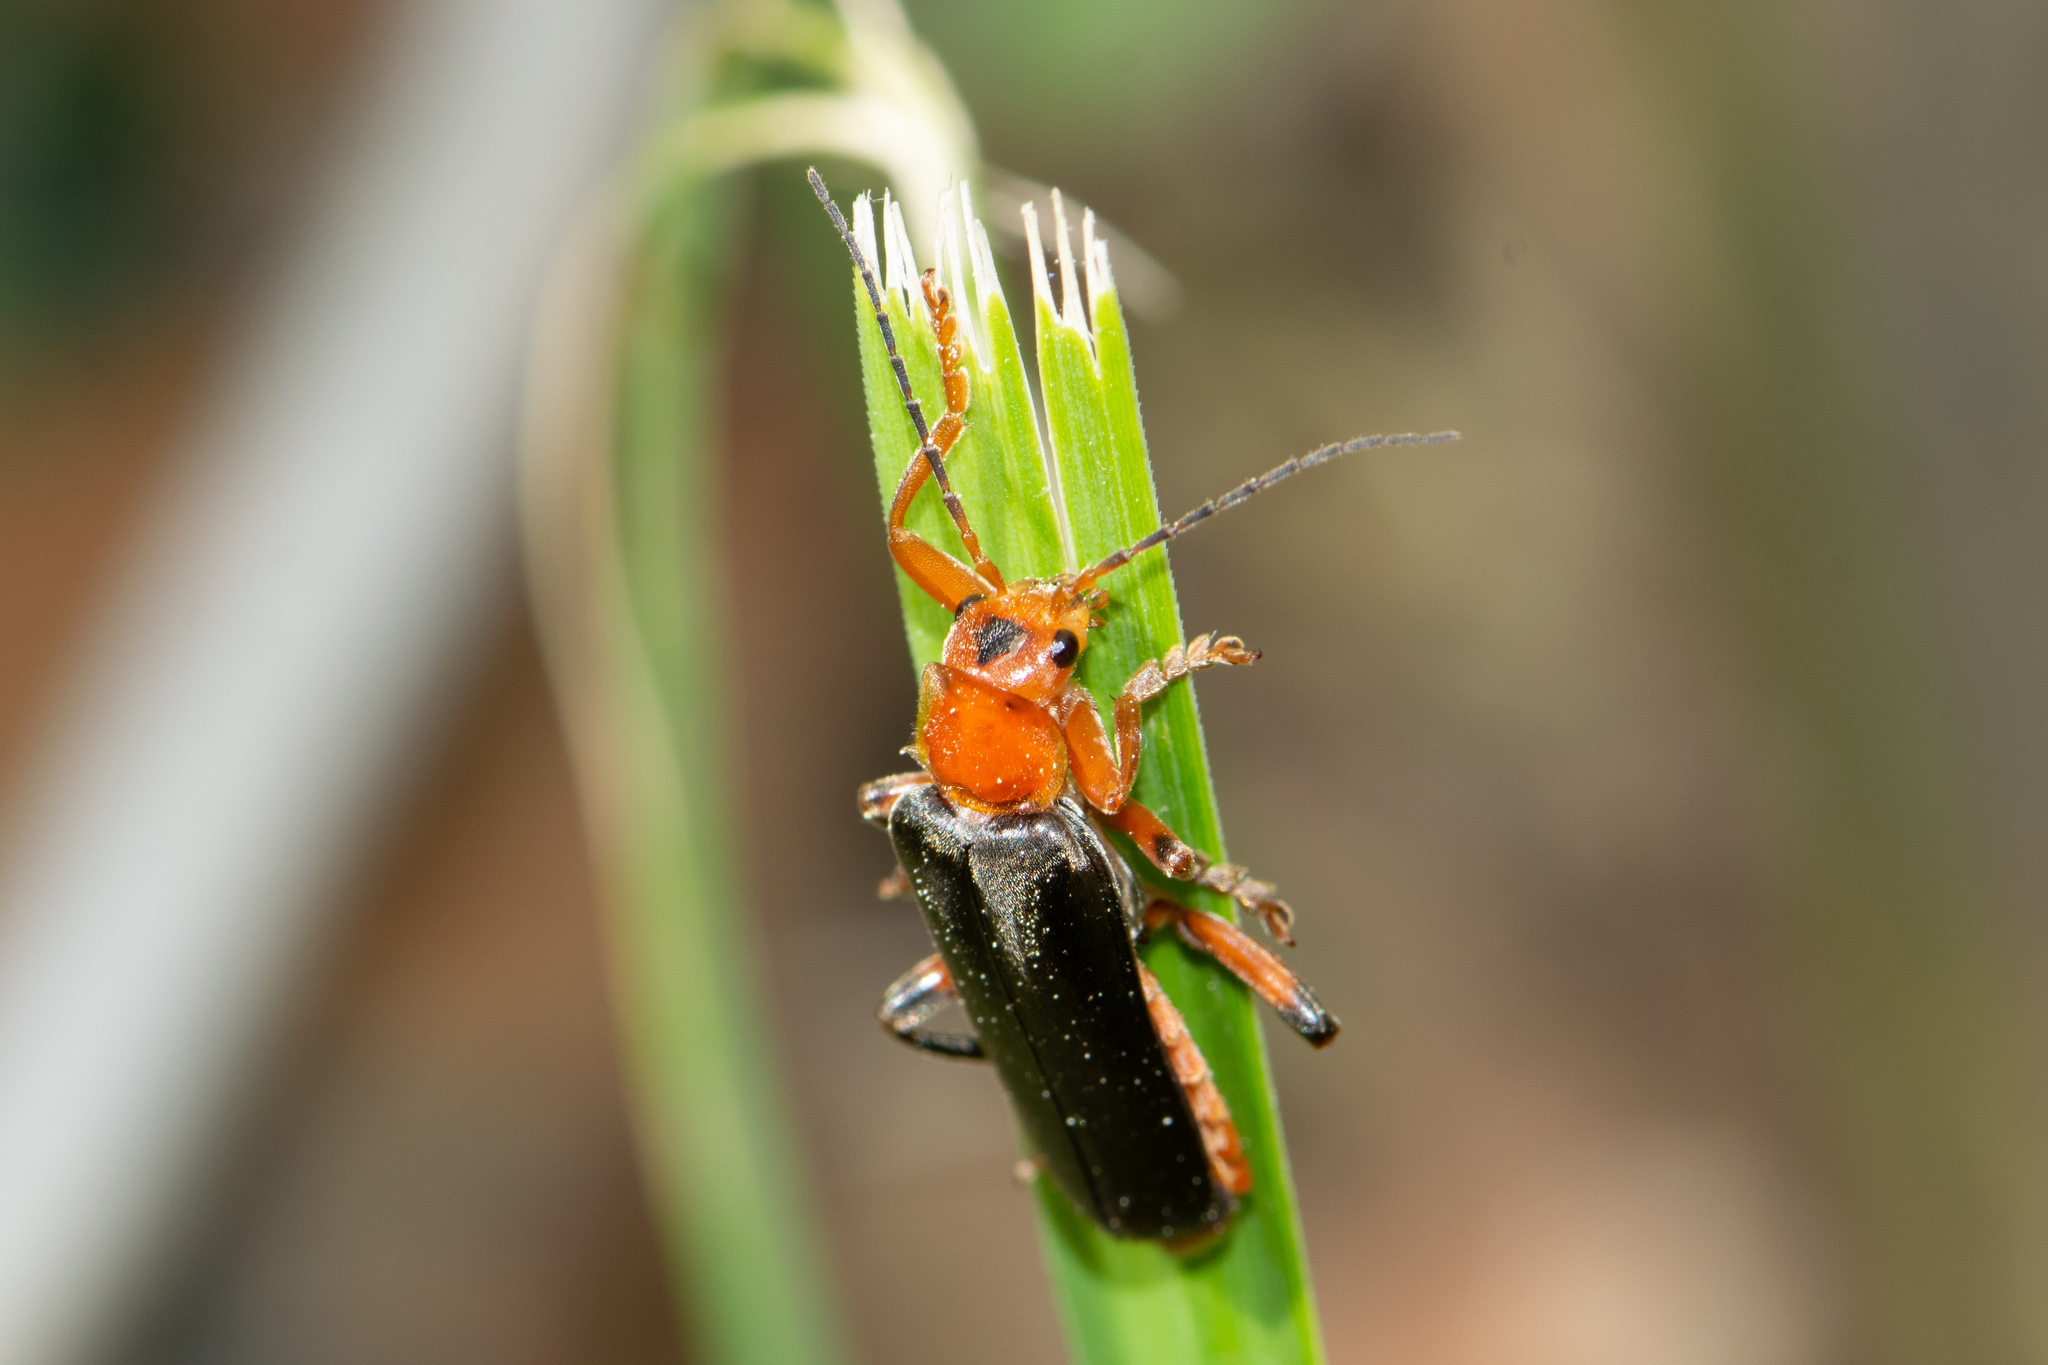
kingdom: Animalia
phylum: Arthropoda
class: Insecta
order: Coleoptera
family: Cantharidae
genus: Cantharis
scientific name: Cantharis livida
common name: Livid soldier beetle
